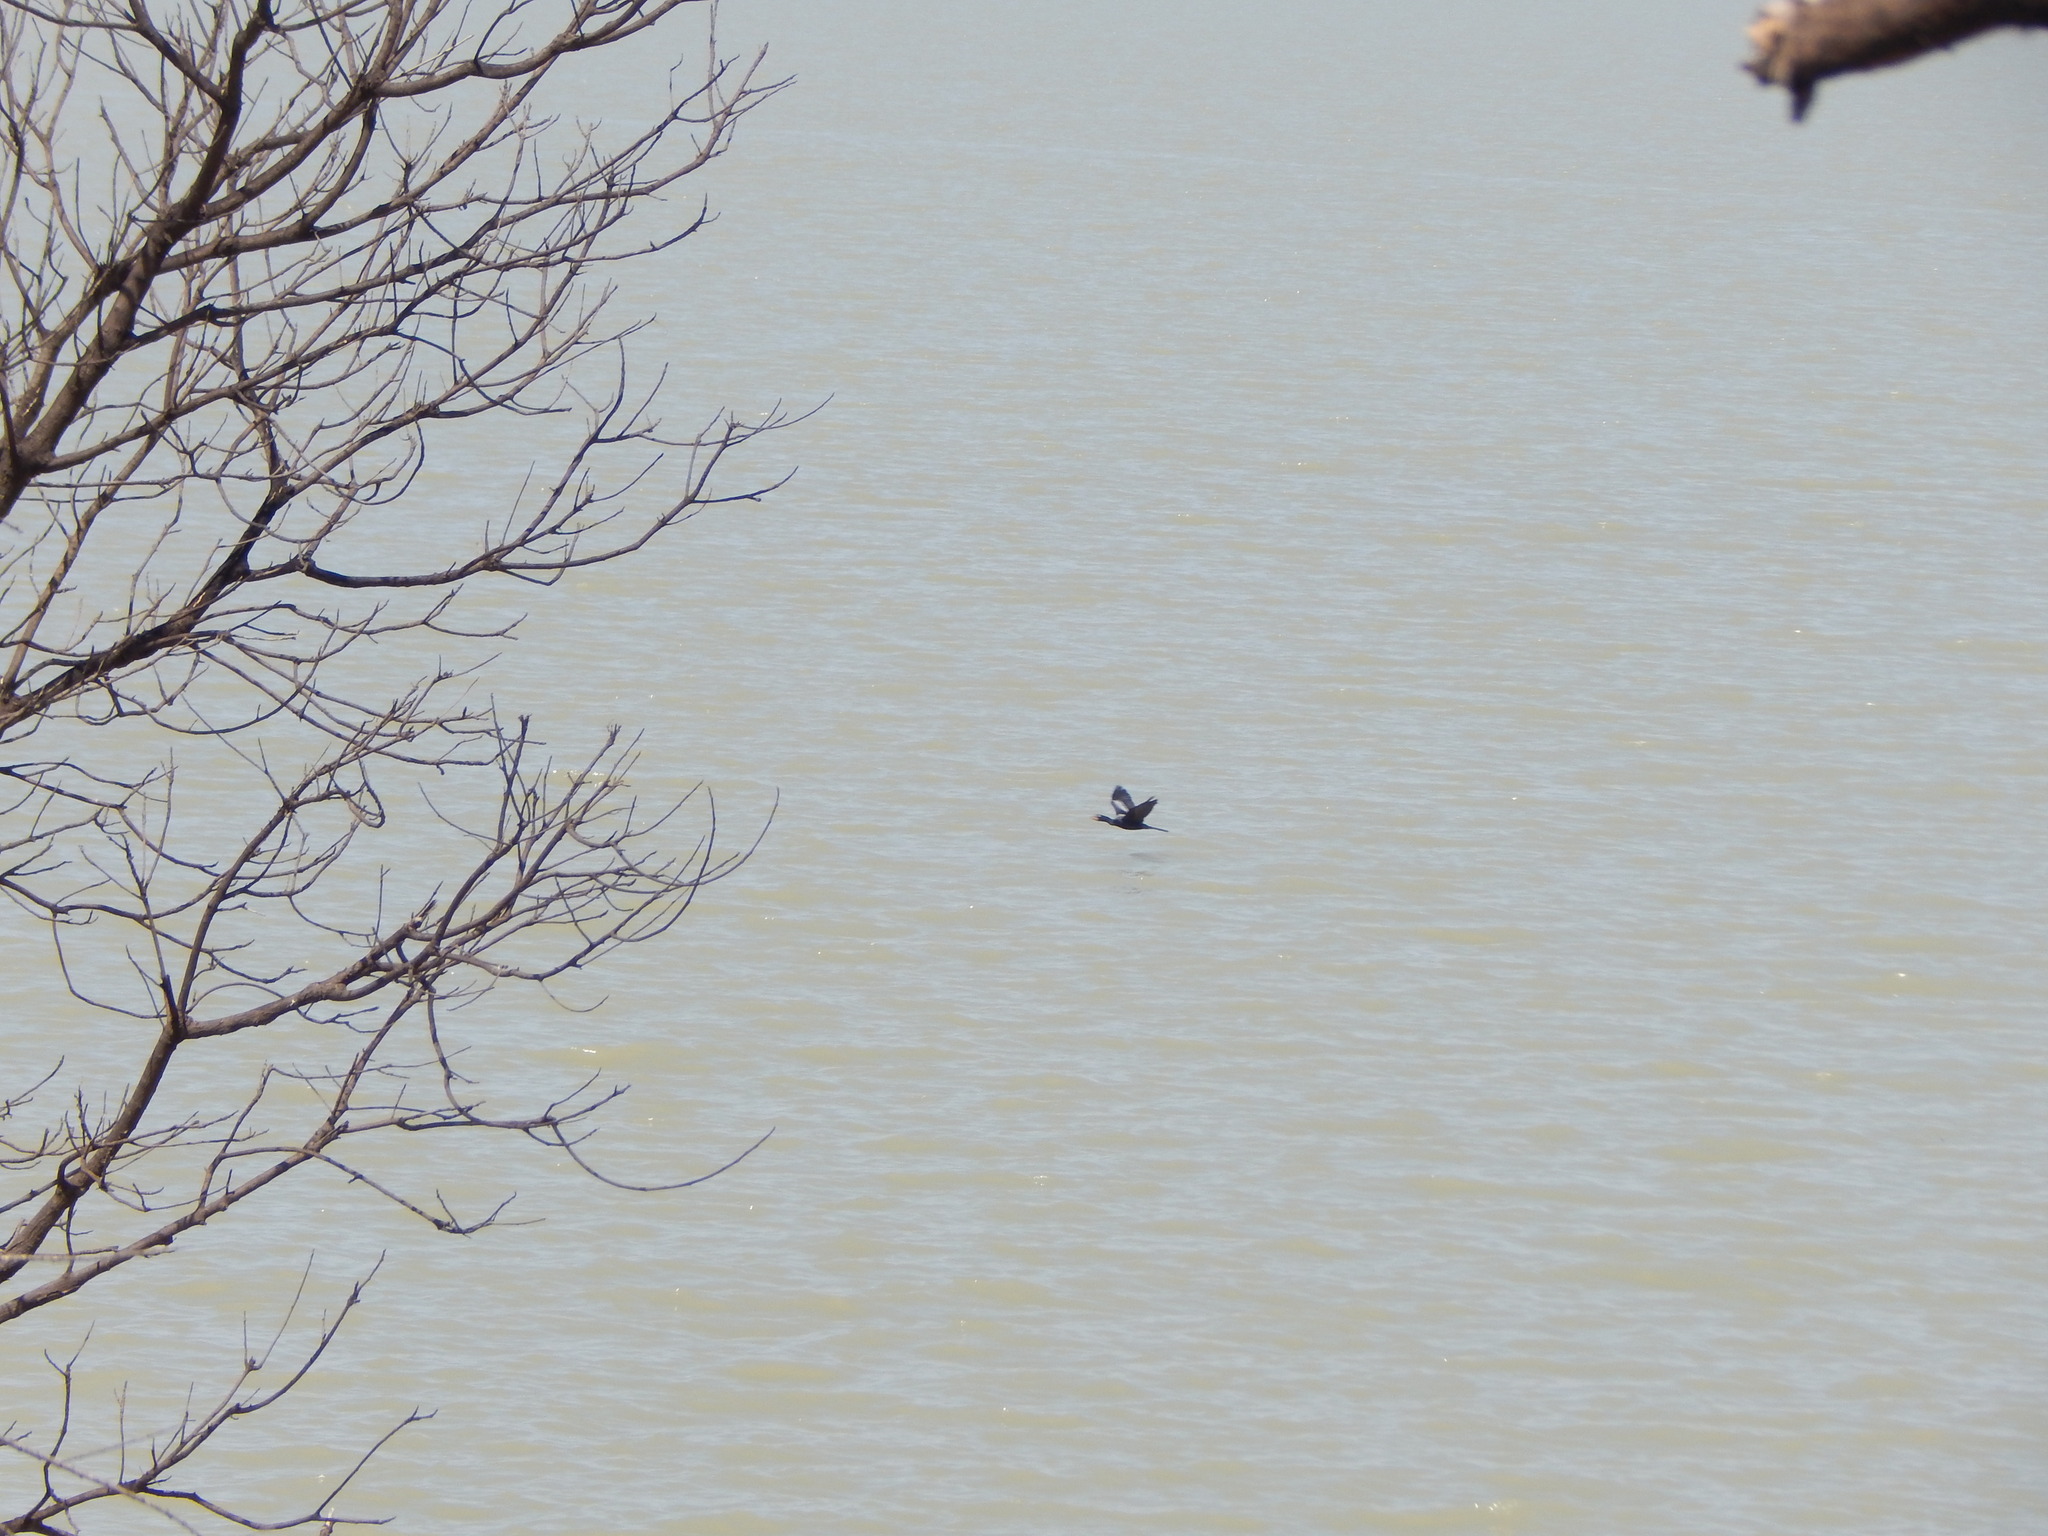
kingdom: Animalia
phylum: Chordata
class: Aves
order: Suliformes
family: Phalacrocoracidae
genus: Microcarbo
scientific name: Microcarbo africanus
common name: Long-tailed cormorant
